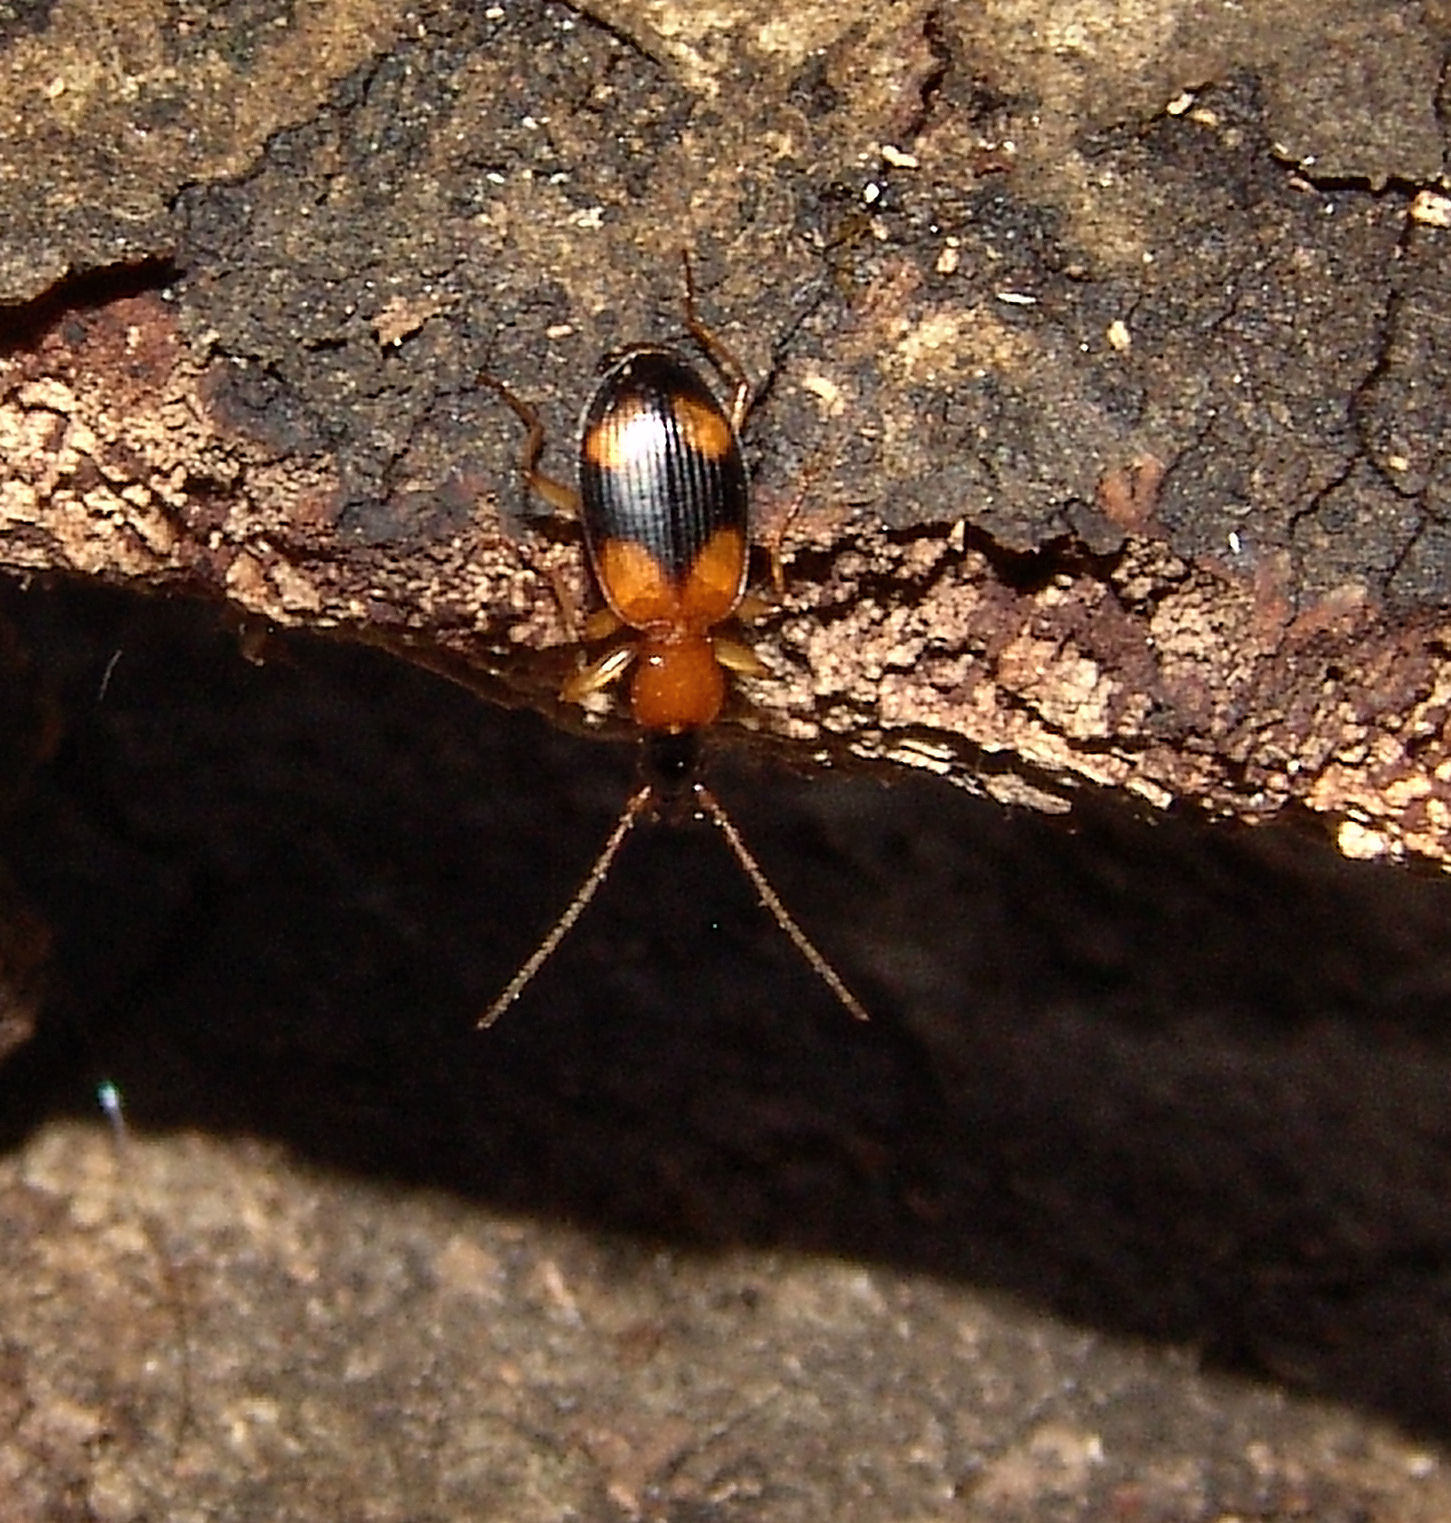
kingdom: Animalia
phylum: Arthropoda
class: Insecta
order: Coleoptera
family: Carabidae
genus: Agonum
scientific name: Agonum quadrimaculatum
